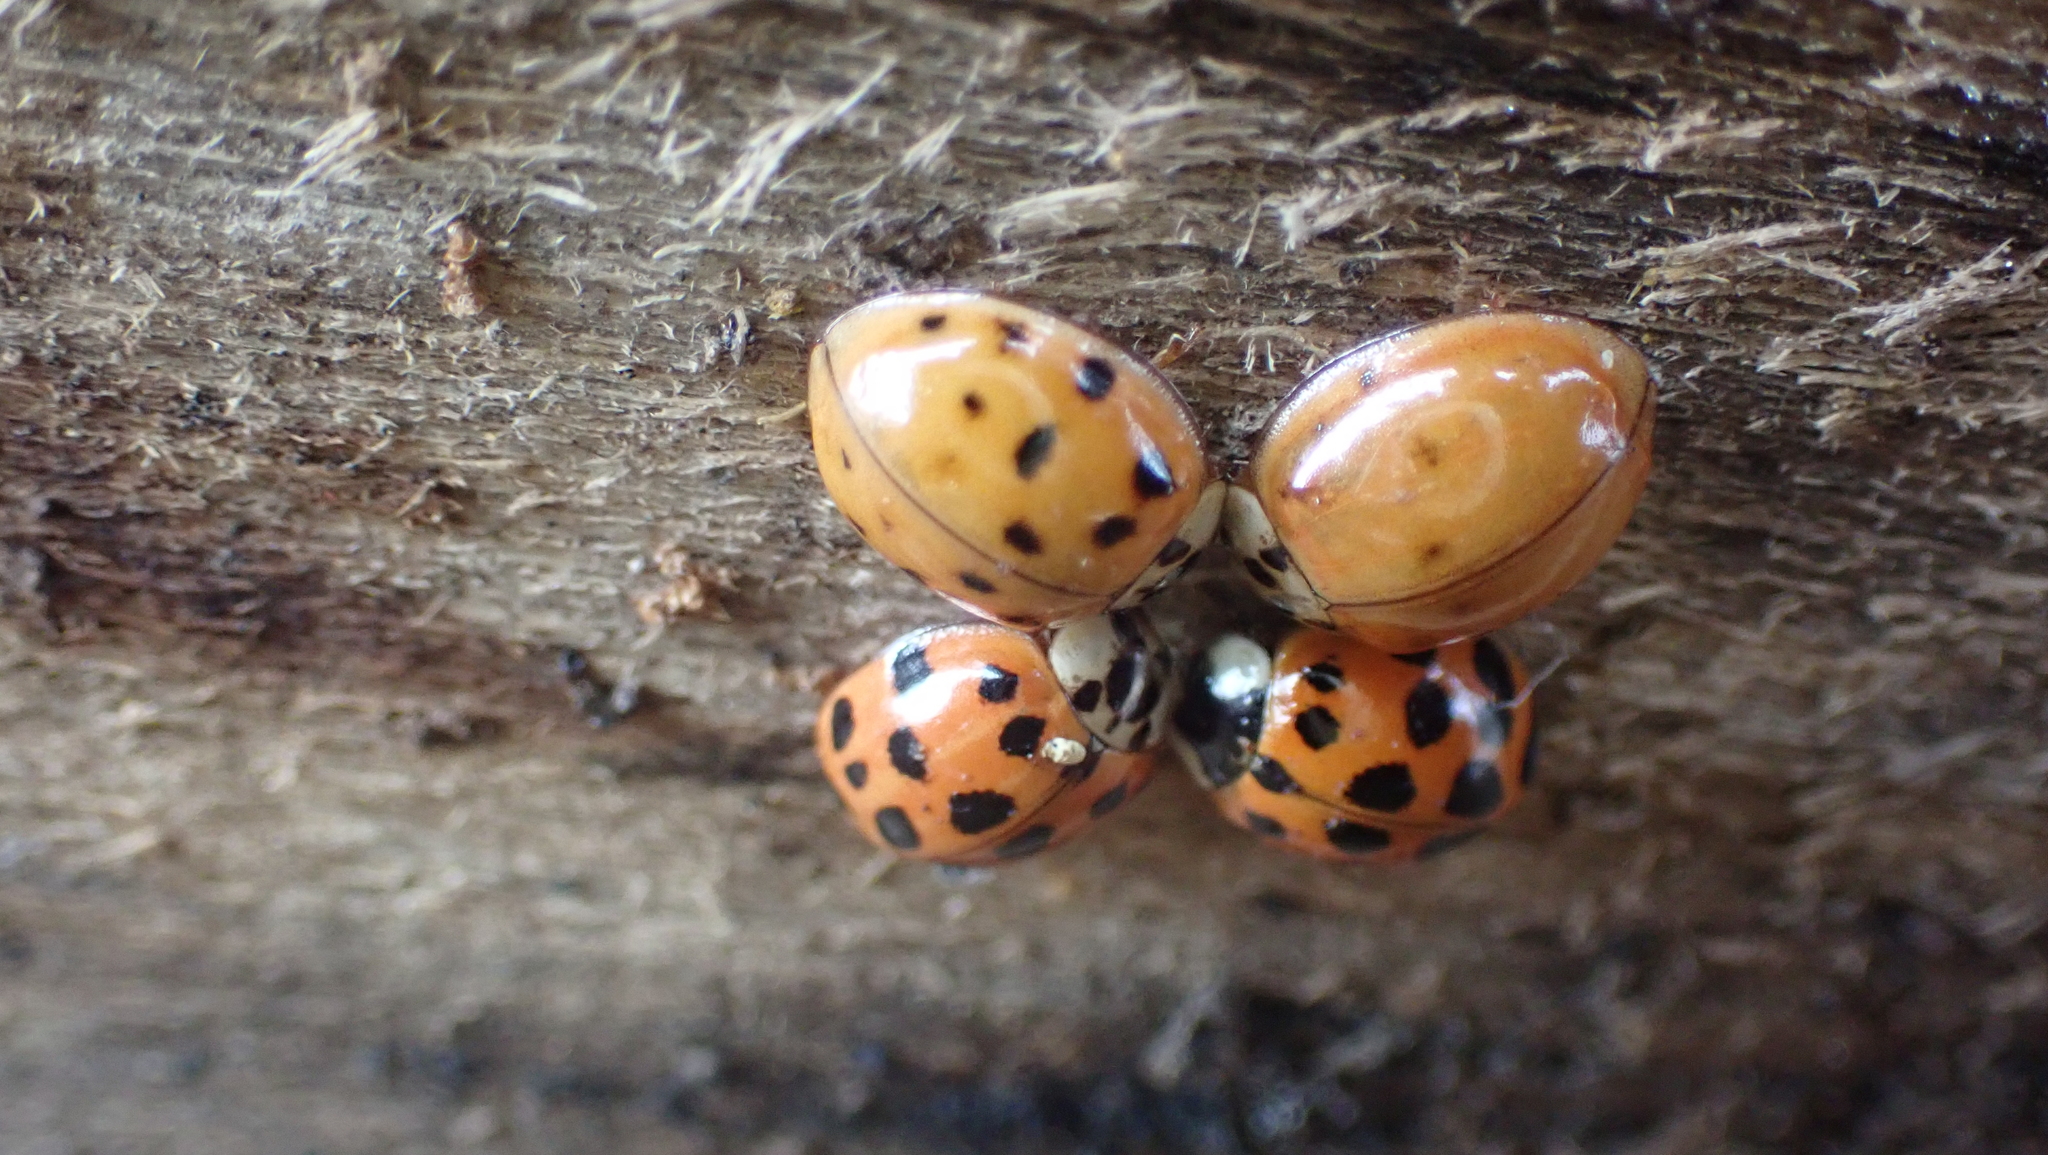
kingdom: Animalia
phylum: Arthropoda
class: Insecta
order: Coleoptera
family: Coccinellidae
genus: Harmonia
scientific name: Harmonia axyridis
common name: Harlequin ladybird
